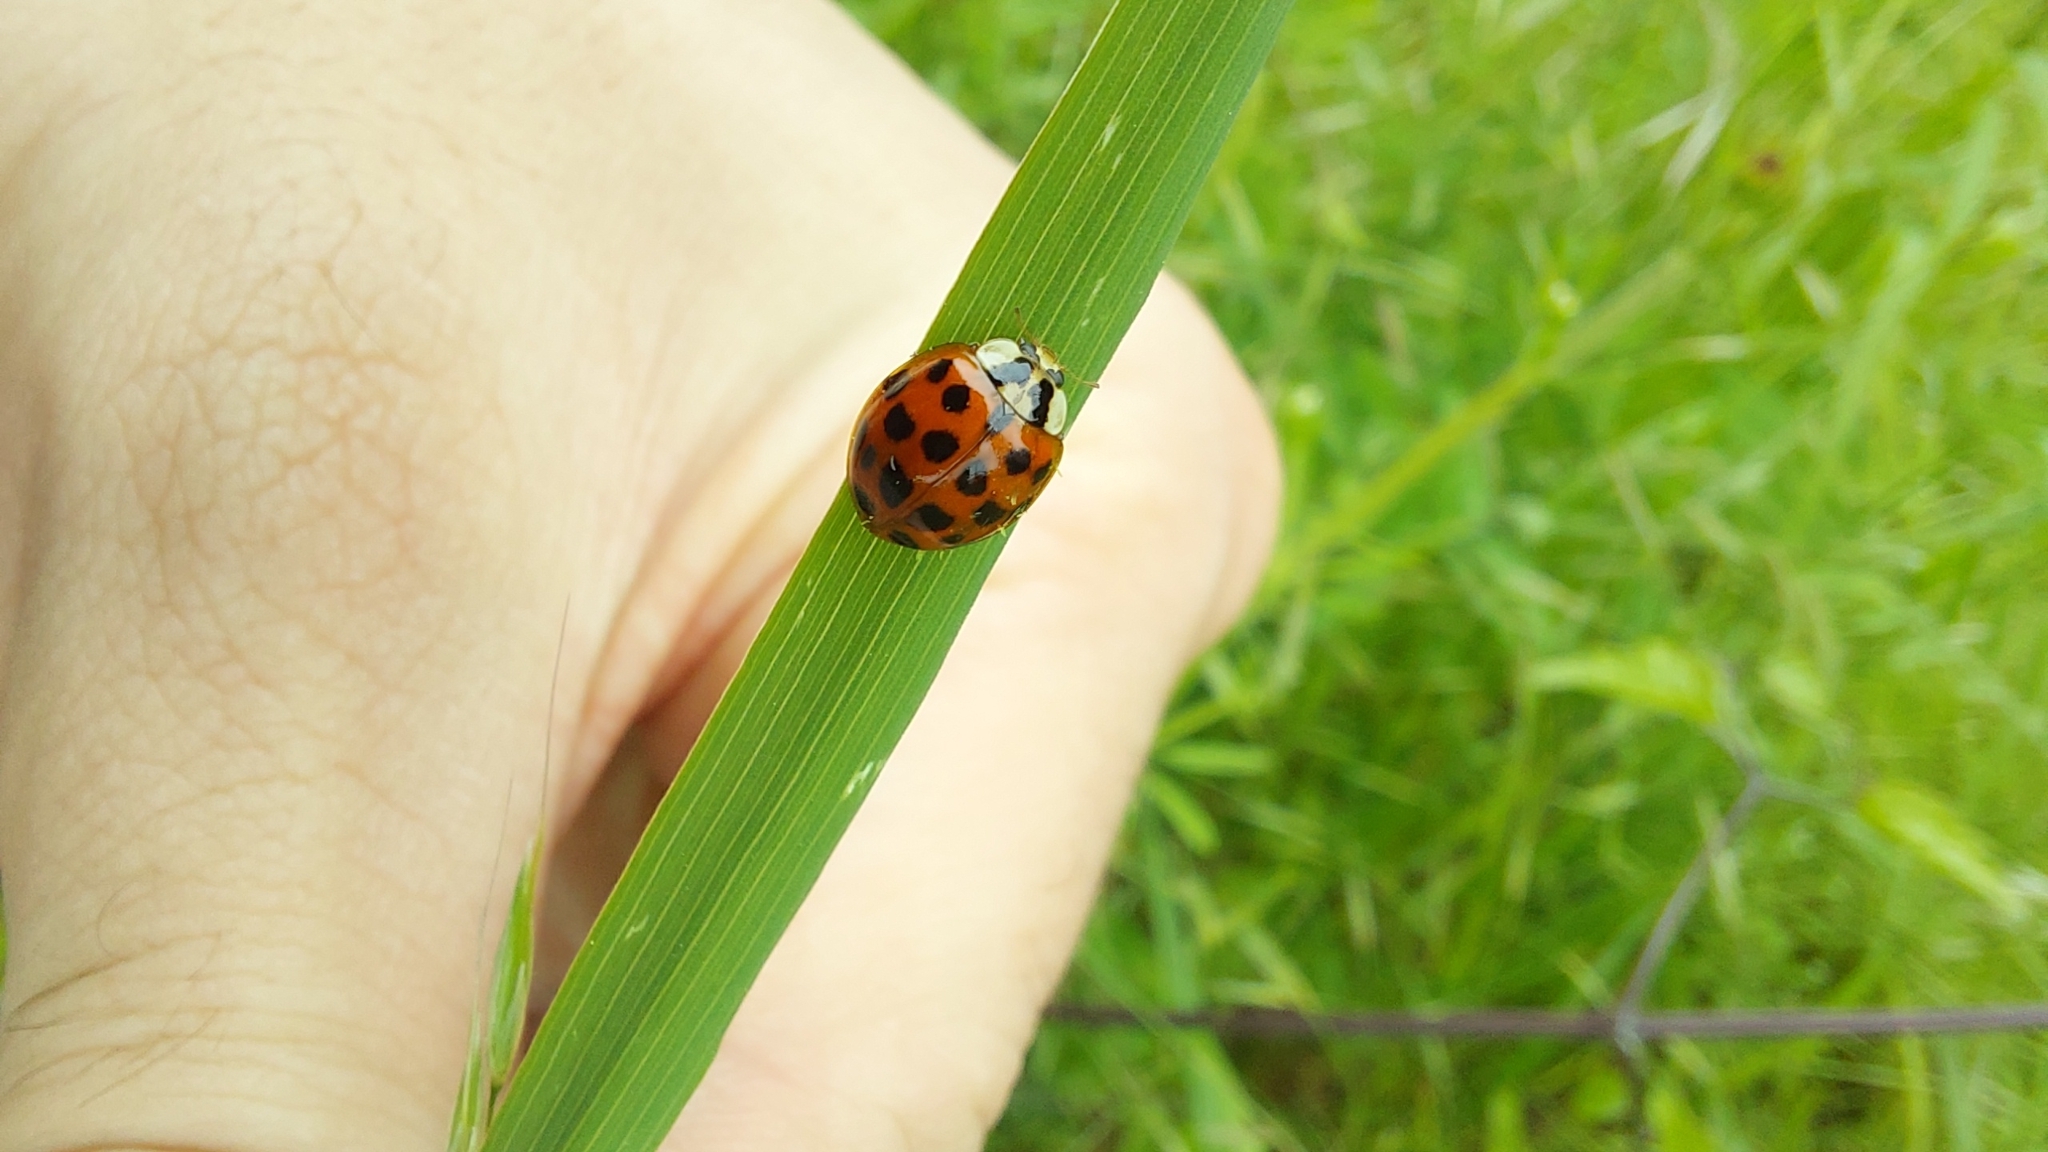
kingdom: Animalia
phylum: Arthropoda
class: Insecta
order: Coleoptera
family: Coccinellidae
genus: Harmonia
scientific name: Harmonia axyridis
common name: Harlequin ladybird
